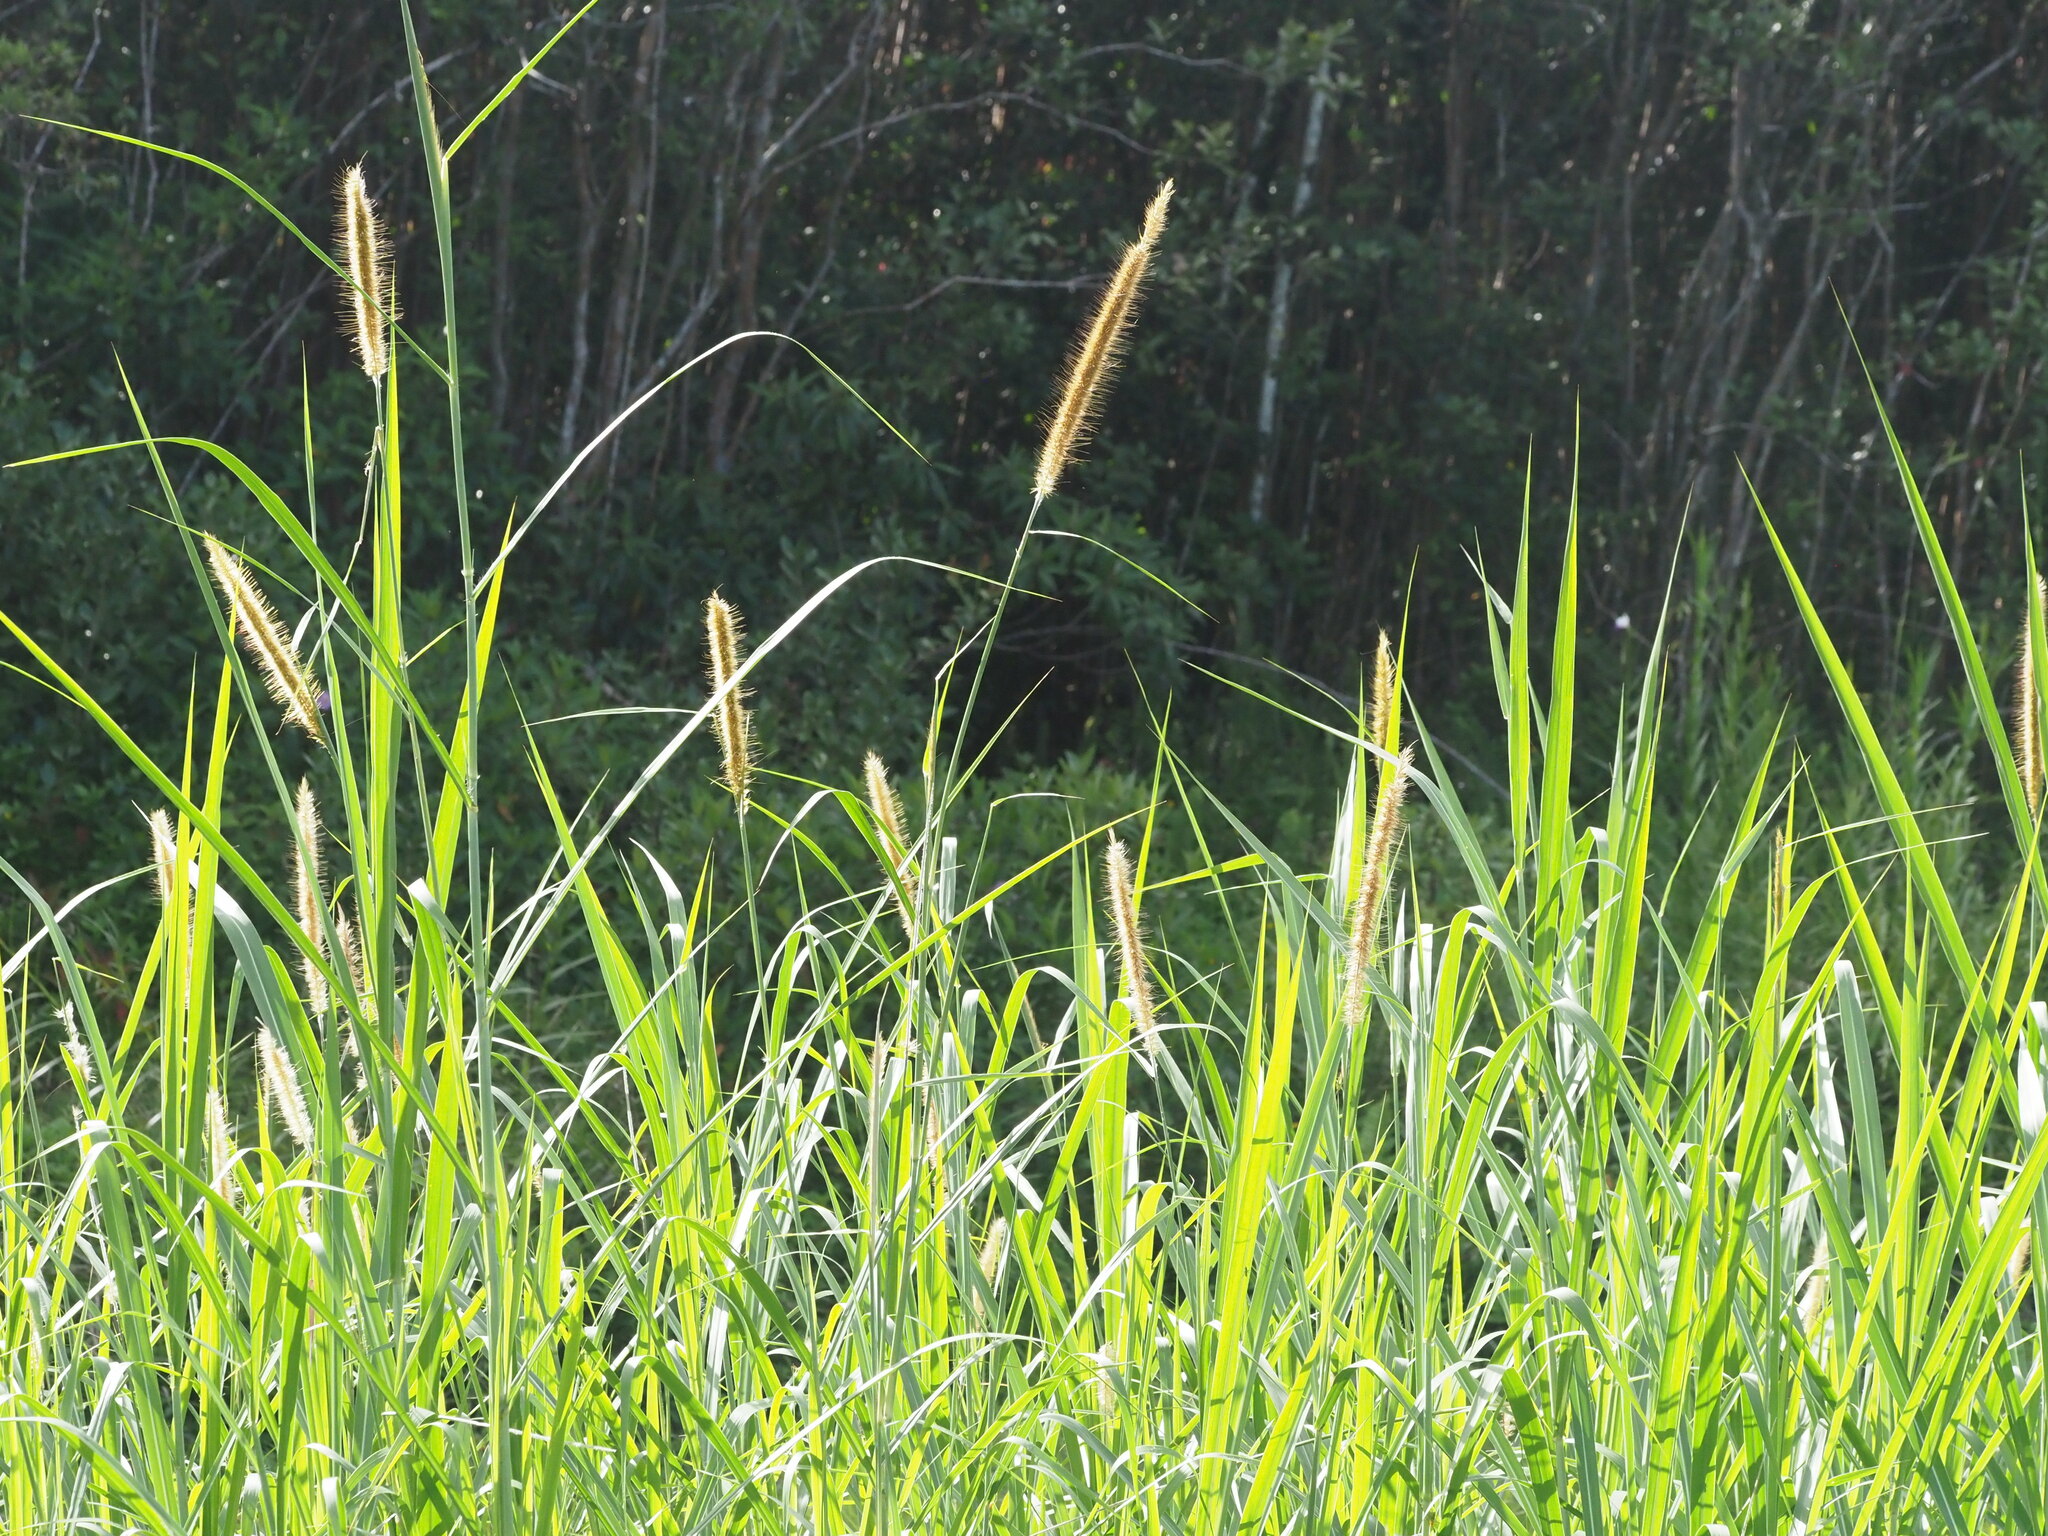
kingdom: Plantae
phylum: Tracheophyta
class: Liliopsida
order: Poales
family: Poaceae
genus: Cenchrus
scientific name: Cenchrus purpureus
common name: Elephant grass
